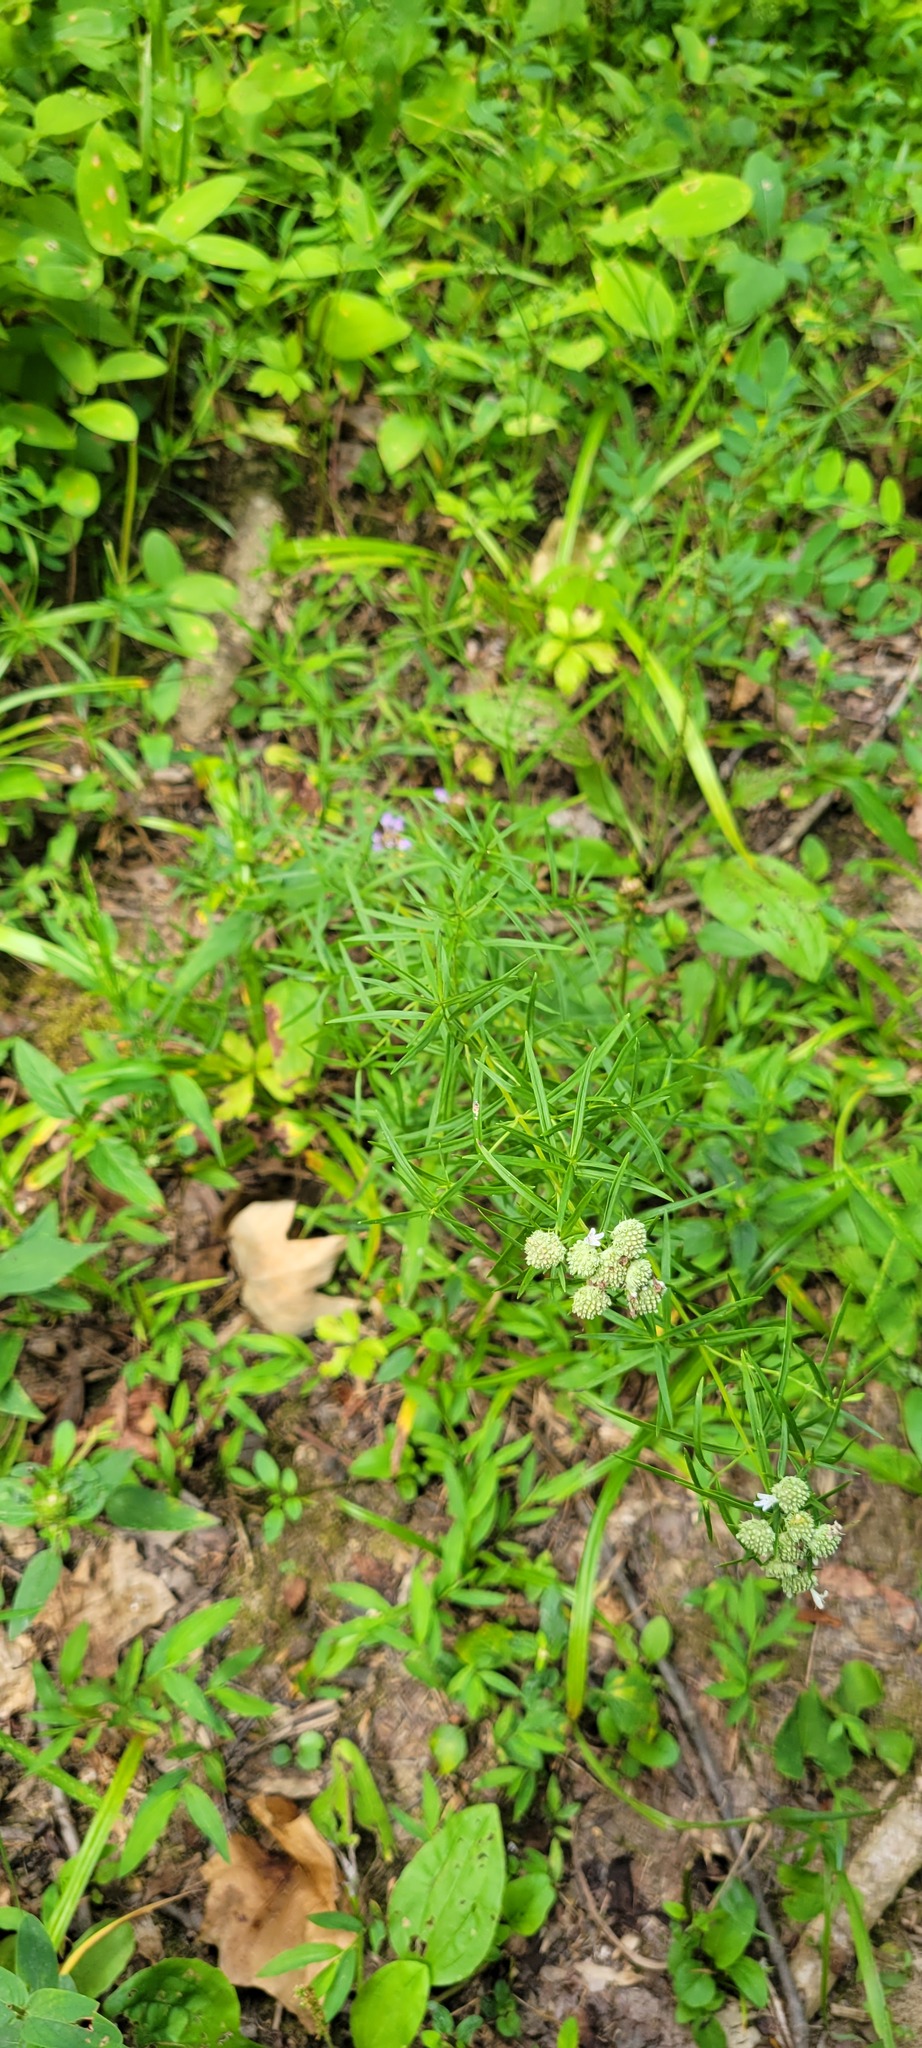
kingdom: Plantae
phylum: Tracheophyta
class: Magnoliopsida
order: Lamiales
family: Lamiaceae
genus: Pycnanthemum
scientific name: Pycnanthemum tenuifolium
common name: Narrow-leaf mountain-mint
